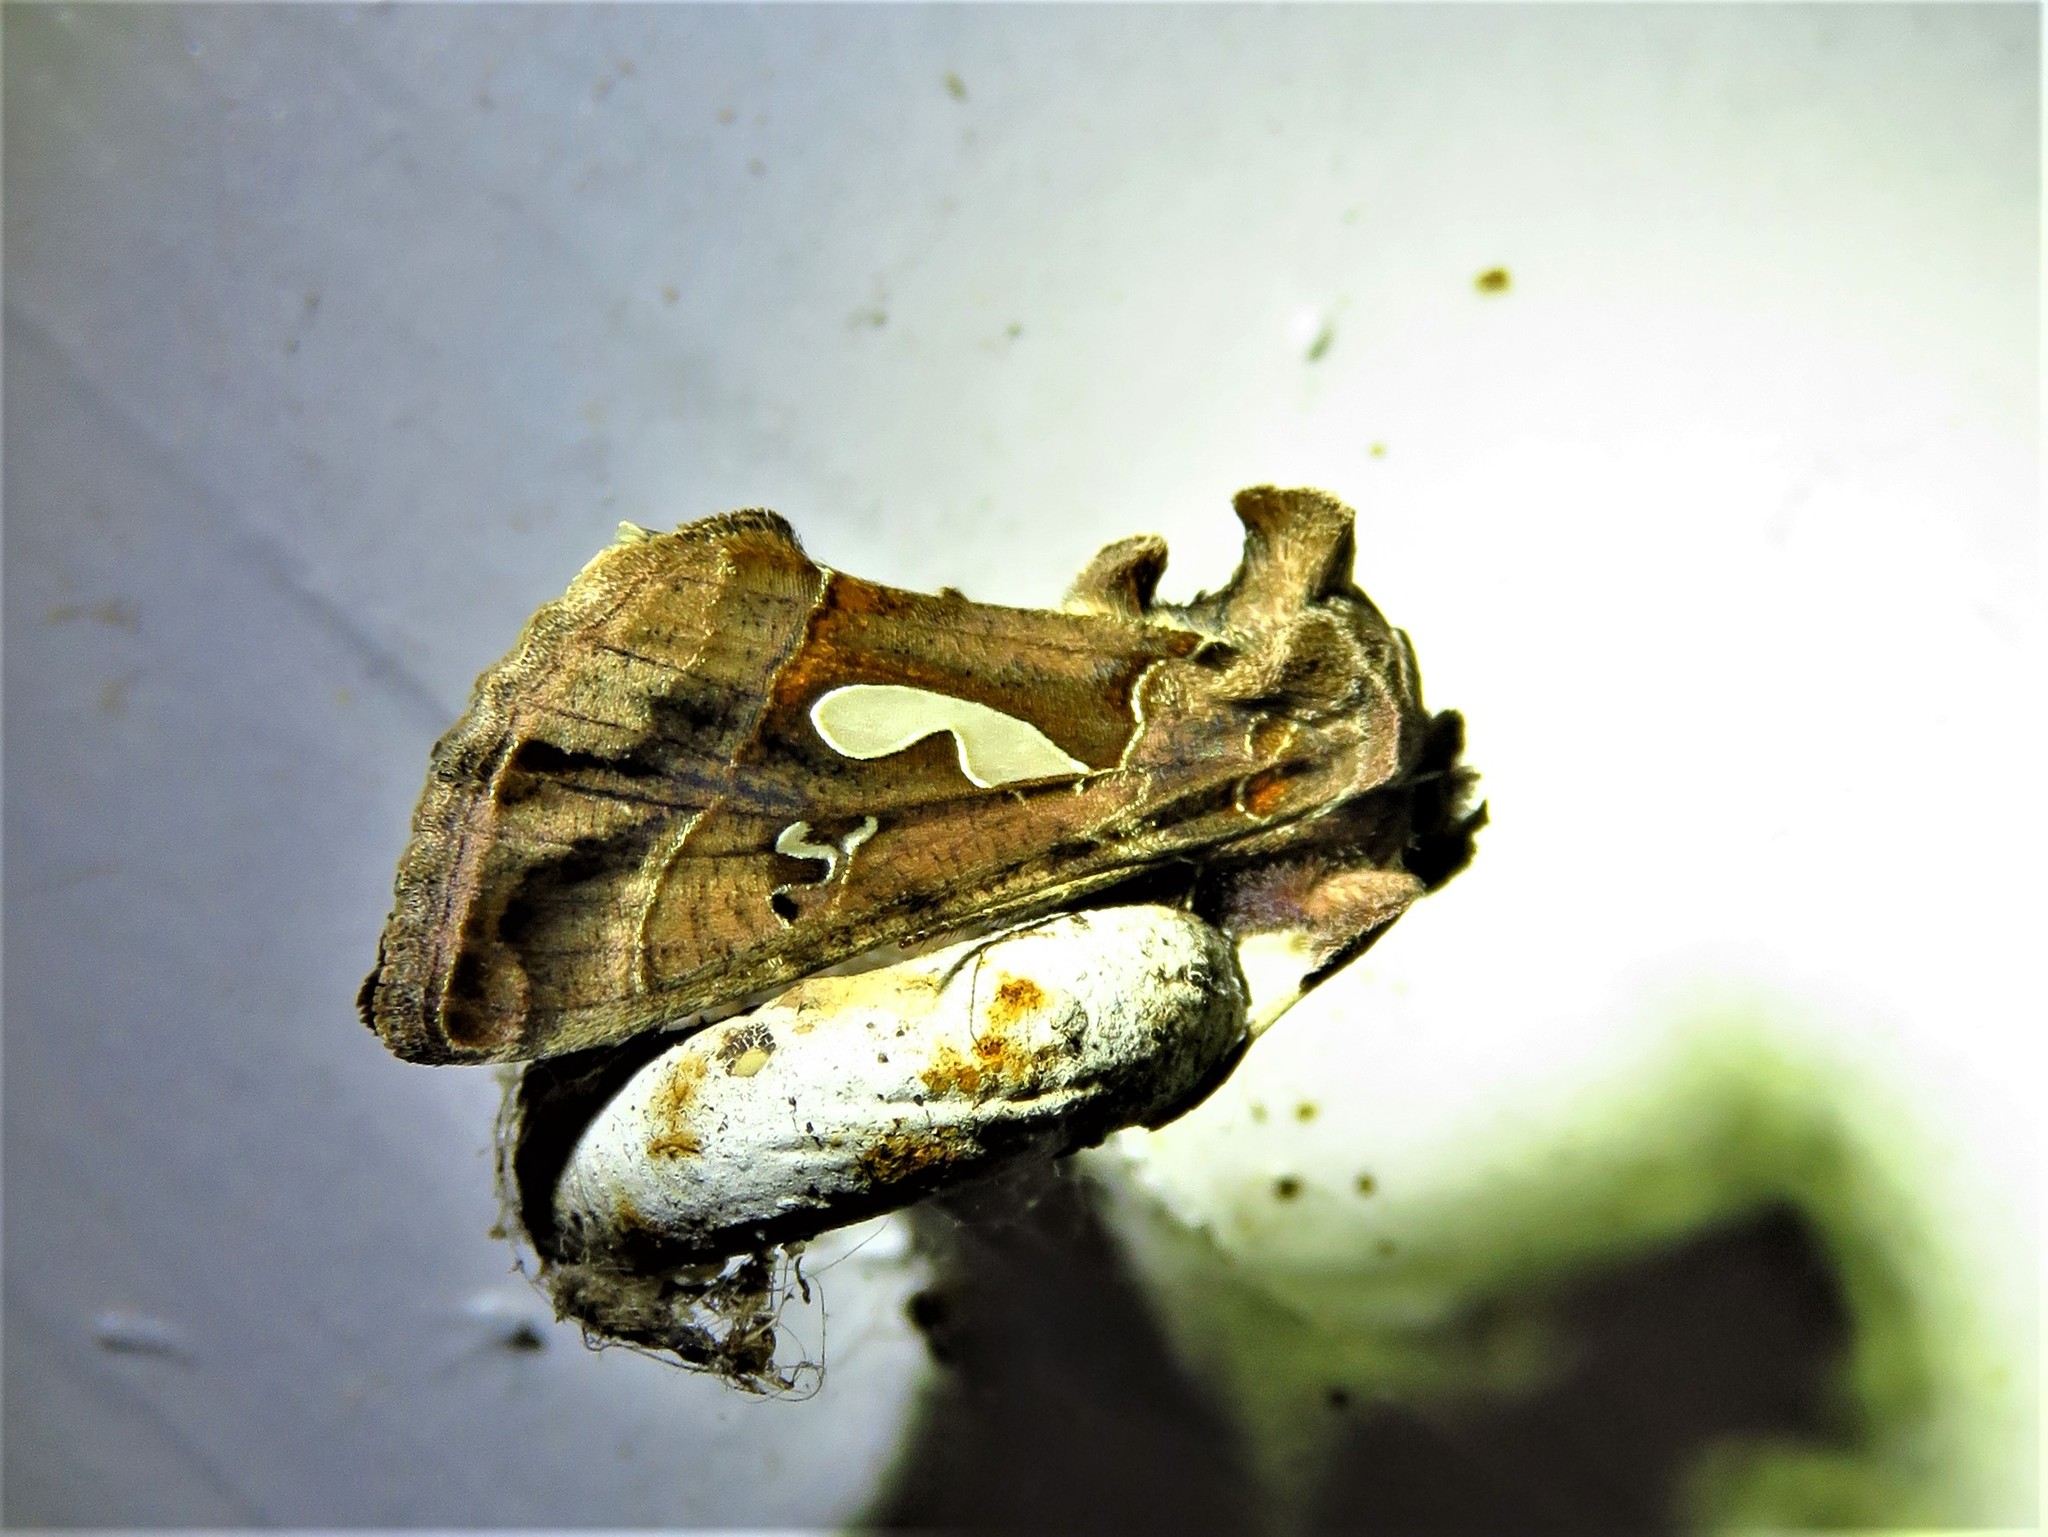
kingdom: Animalia
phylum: Arthropoda
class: Insecta
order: Lepidoptera
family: Noctuidae
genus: Megalographa
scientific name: Megalographa biloba
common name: Cutworm
